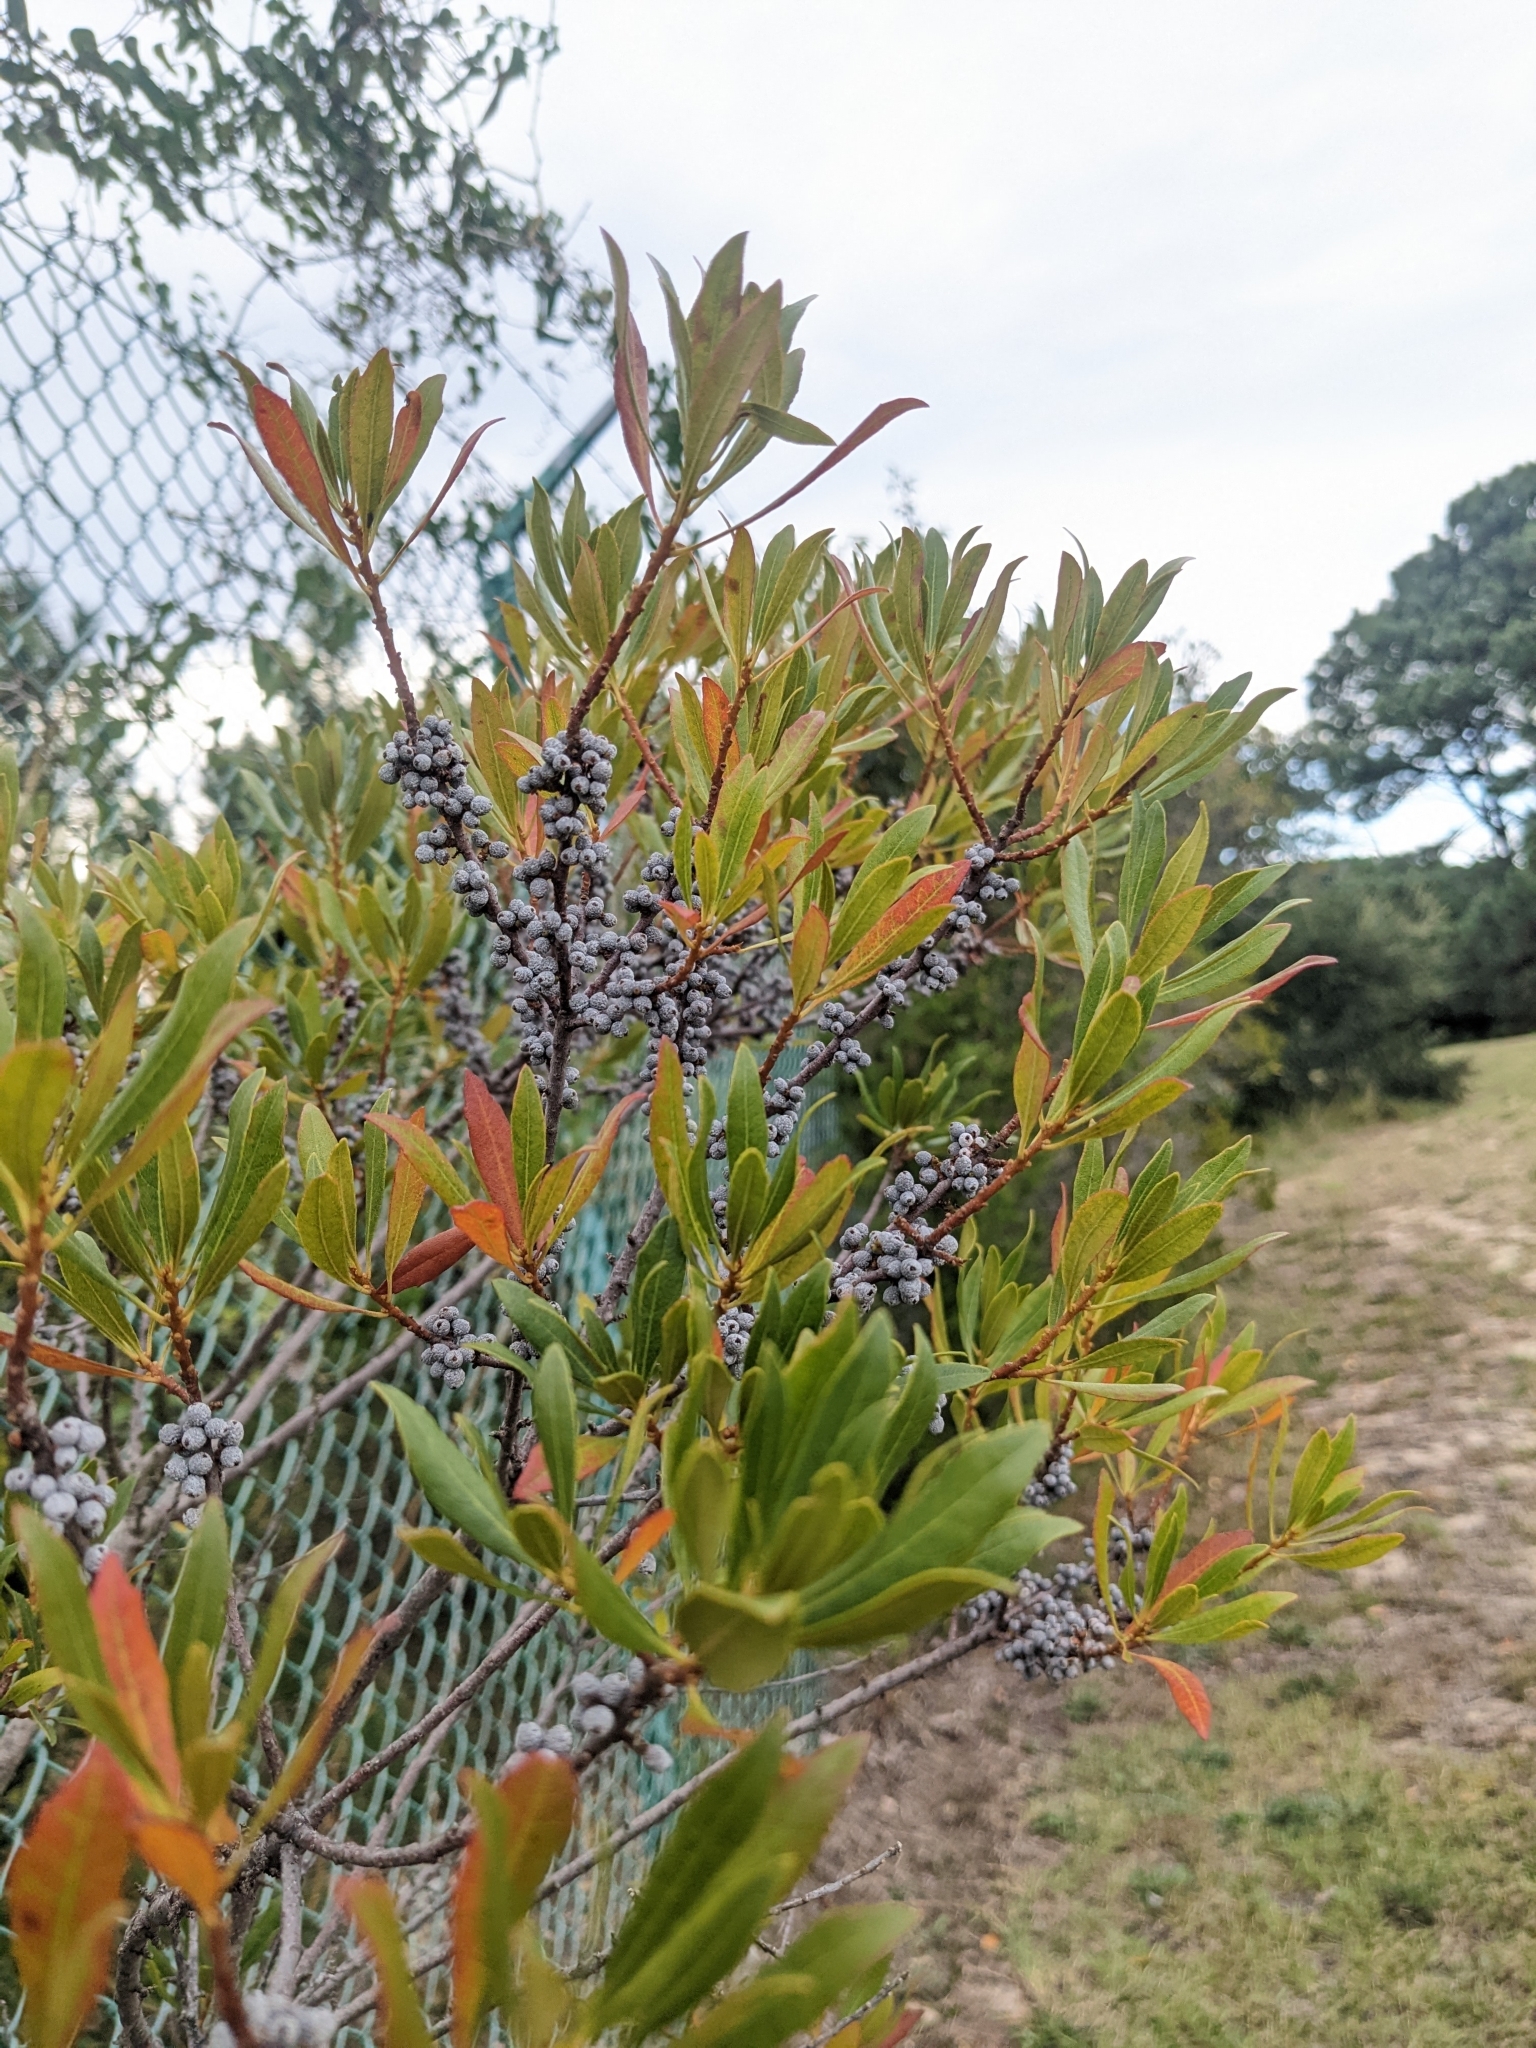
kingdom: Plantae
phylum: Tracheophyta
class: Magnoliopsida
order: Fagales
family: Myricaceae
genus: Morella
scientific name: Morella cerifera
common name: Wax myrtle
